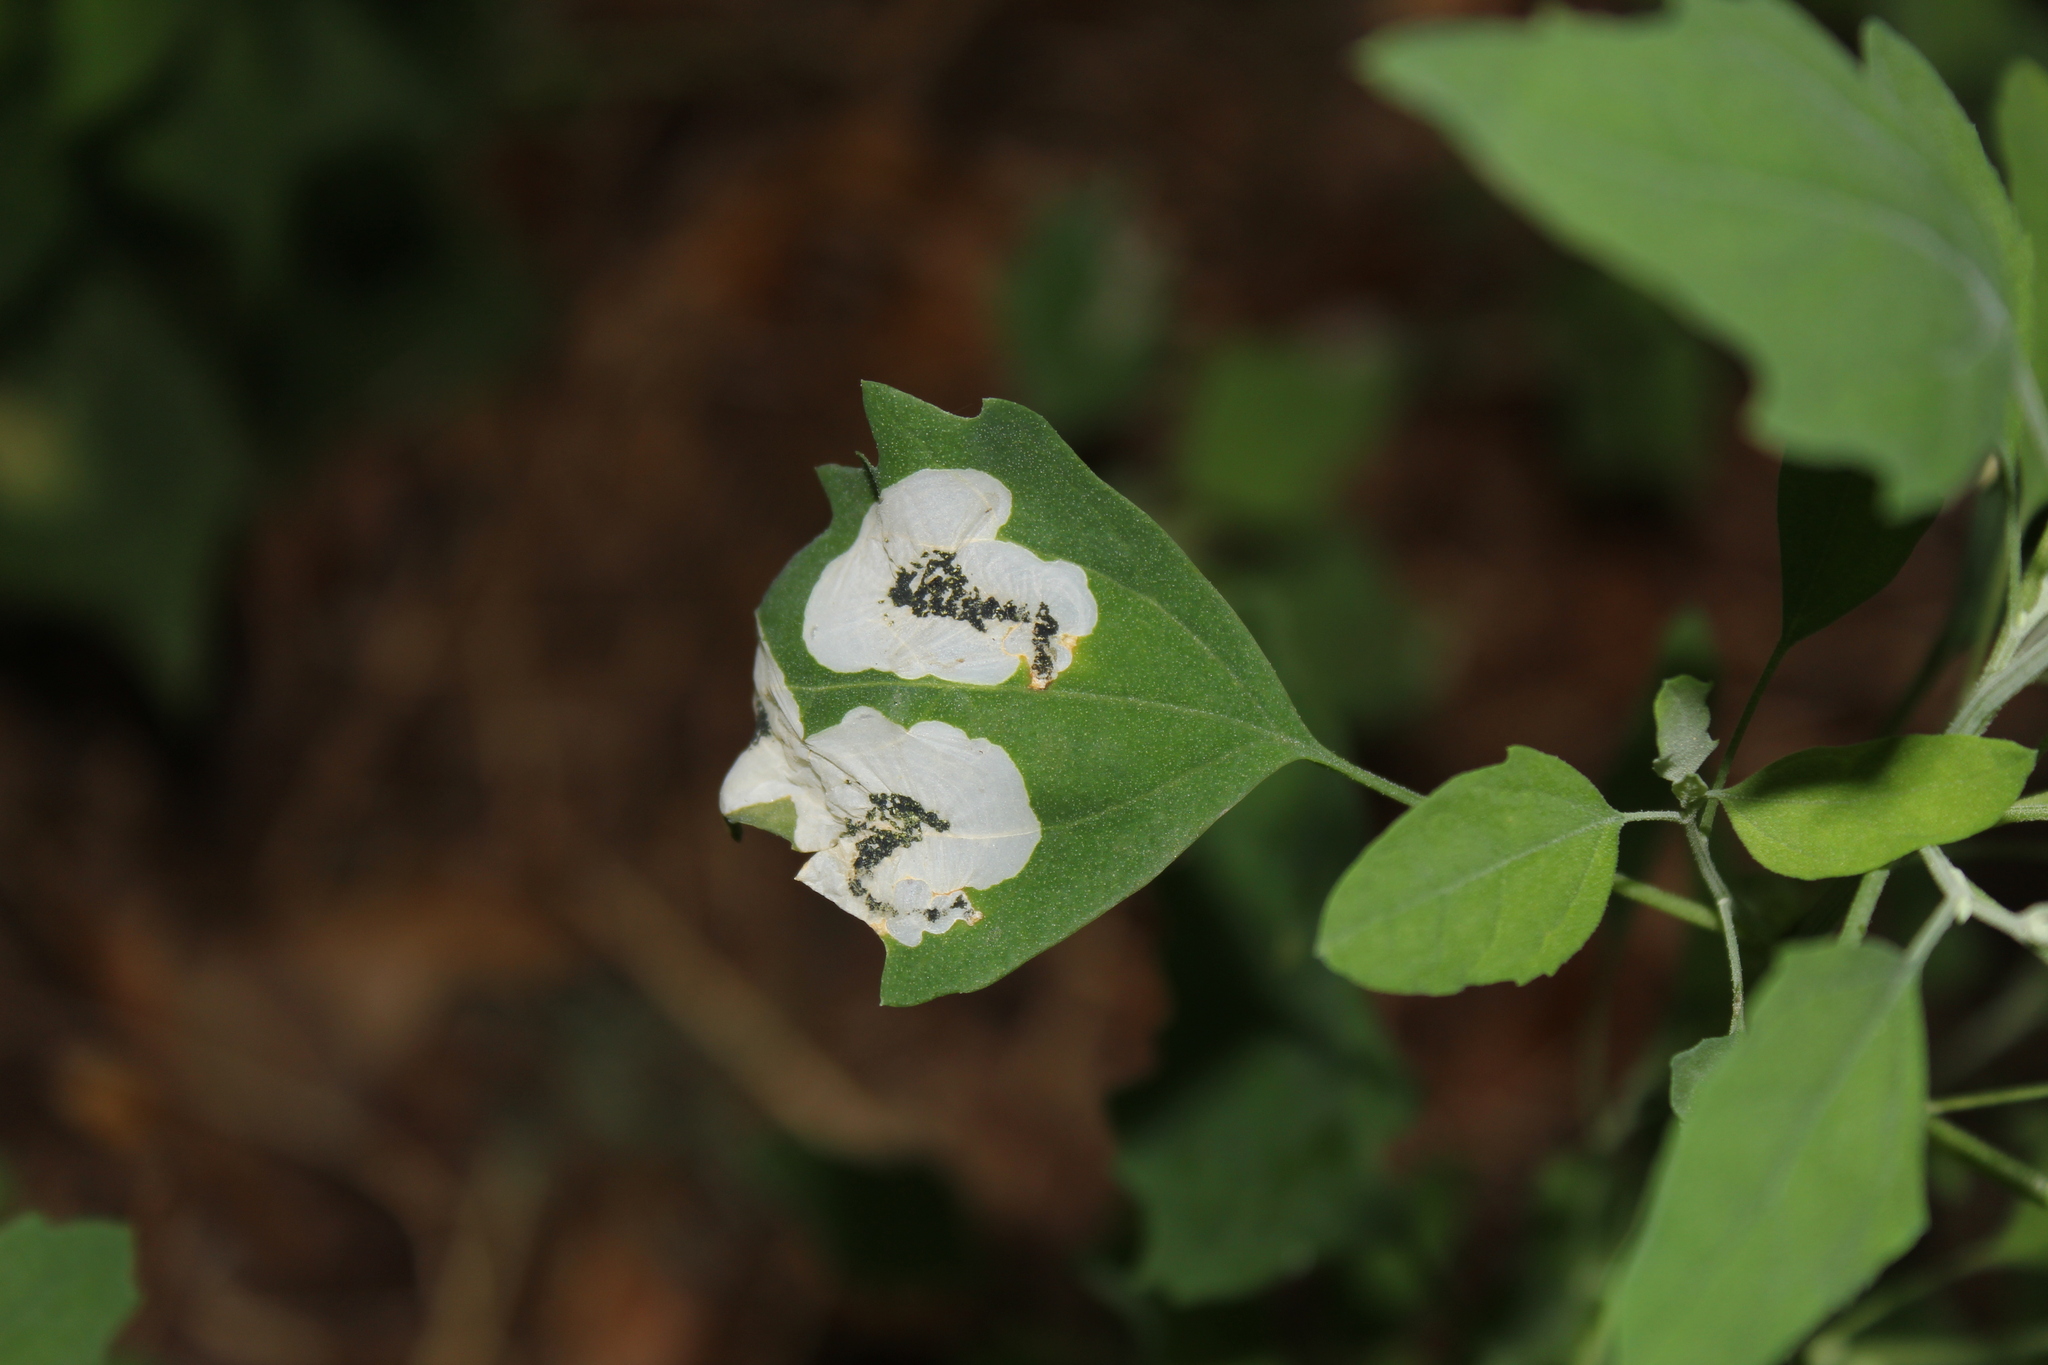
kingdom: Animalia
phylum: Arthropoda
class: Insecta
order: Lepidoptera
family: Gelechiidae
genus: Chrysoesthia
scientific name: Chrysoesthia sexguttella
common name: Moth
